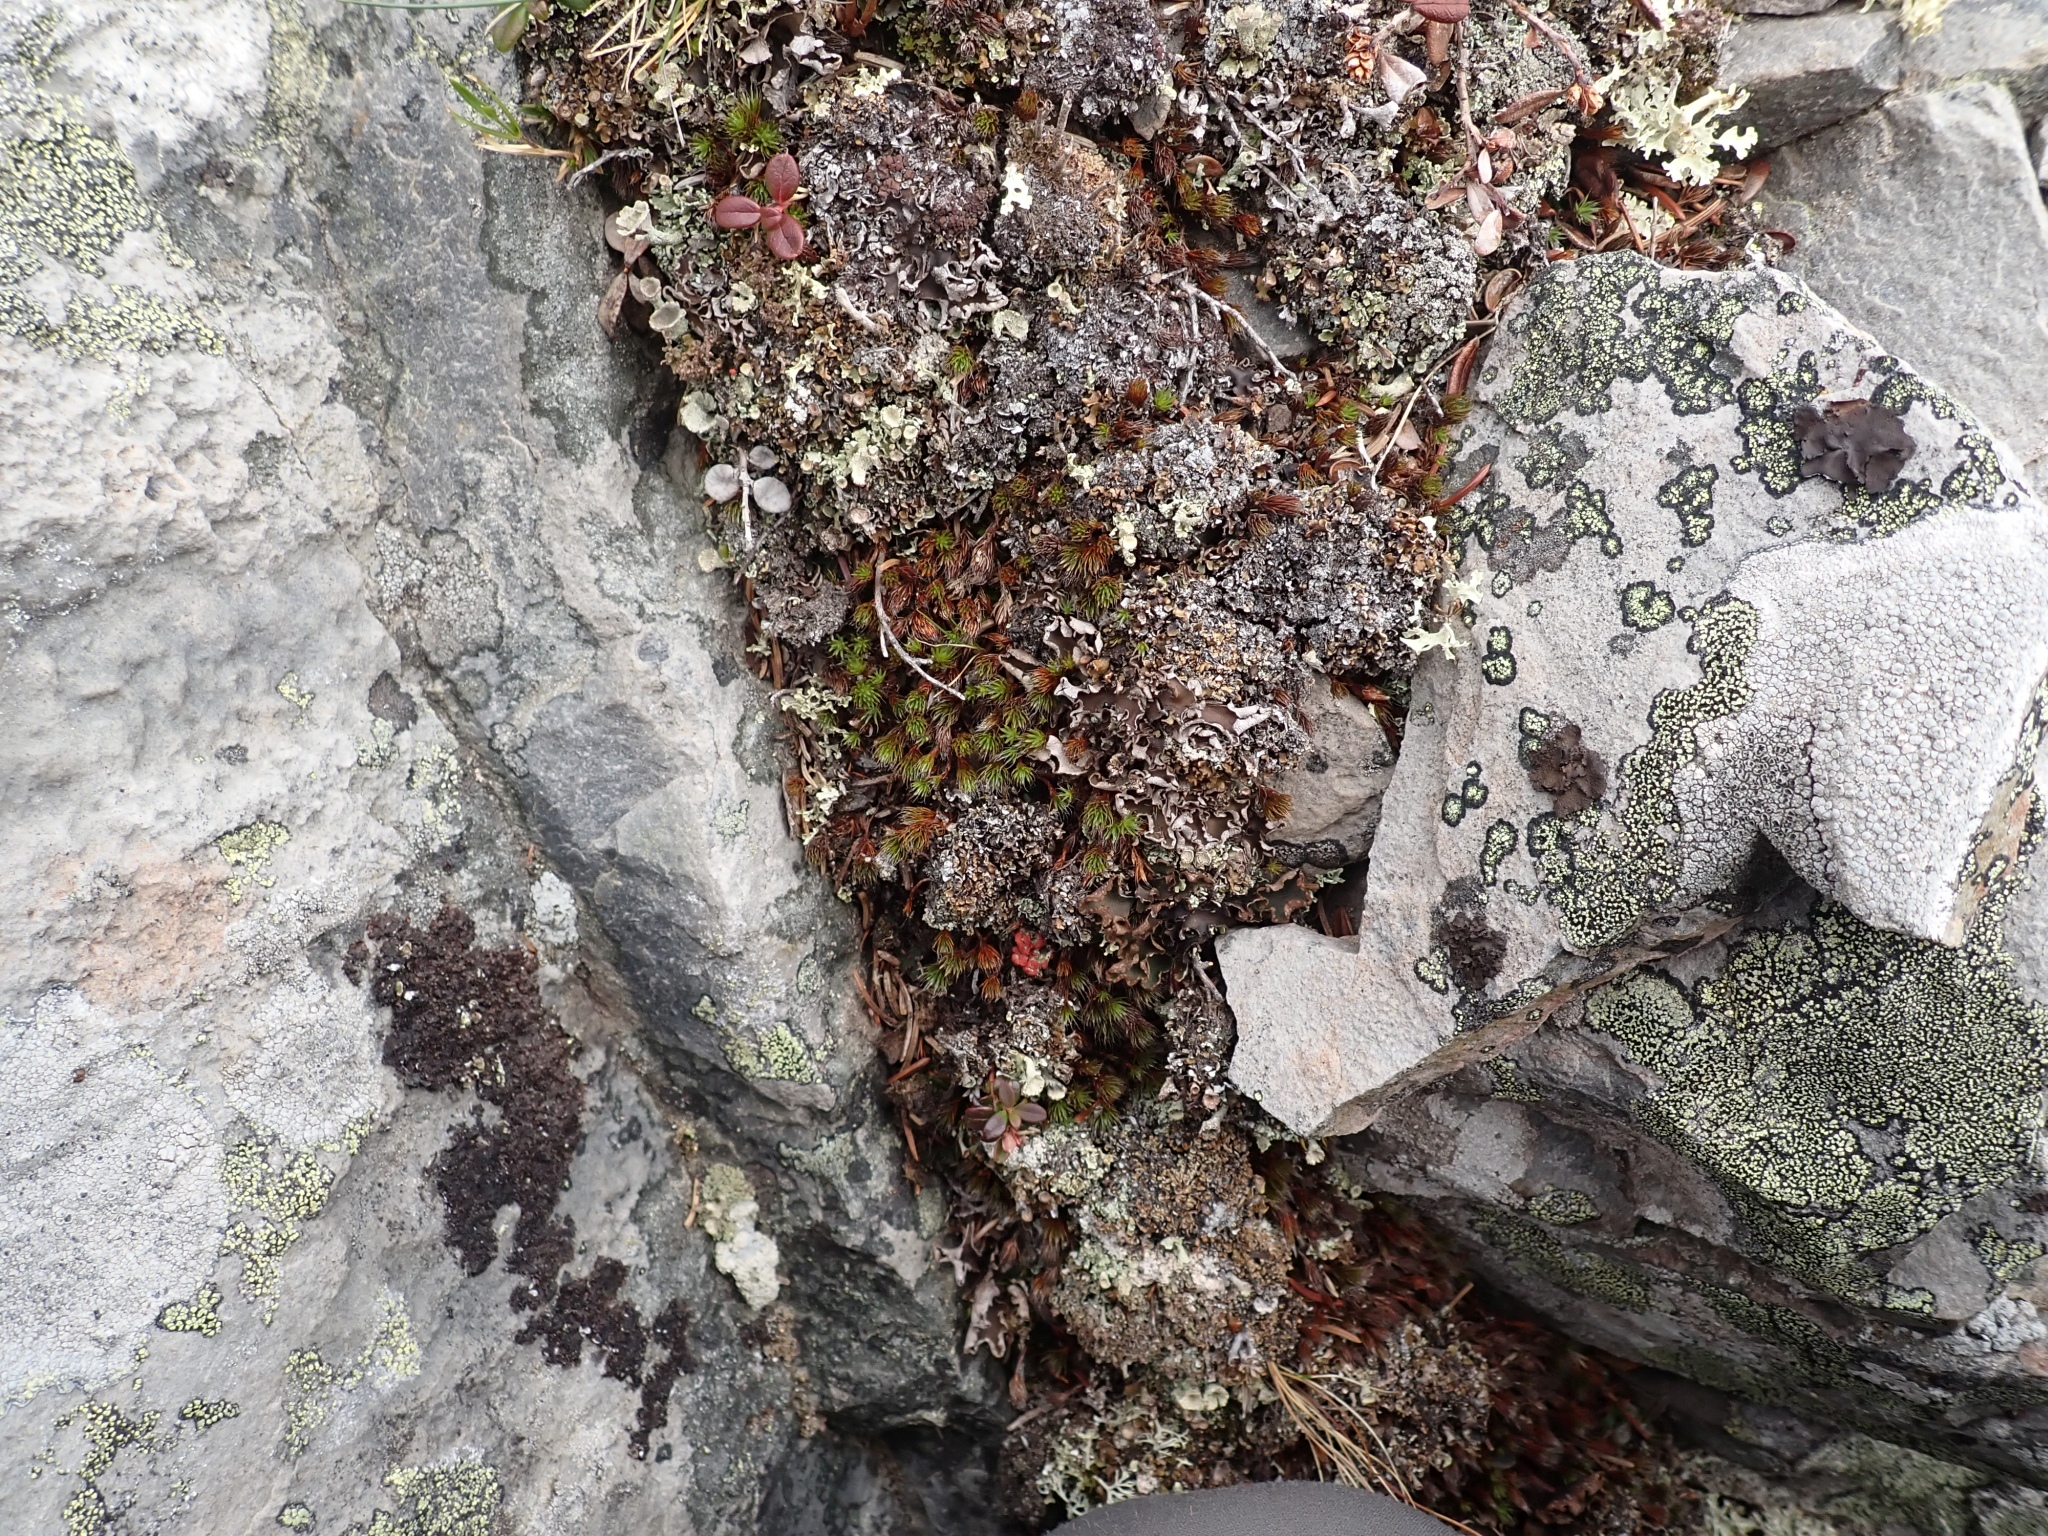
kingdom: Plantae
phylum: Bryophyta
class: Polytrichopsida
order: Polytrichales
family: Polytrichaceae
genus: Polytrichum
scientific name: Polytrichum piliferum
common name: Bristly haircap
